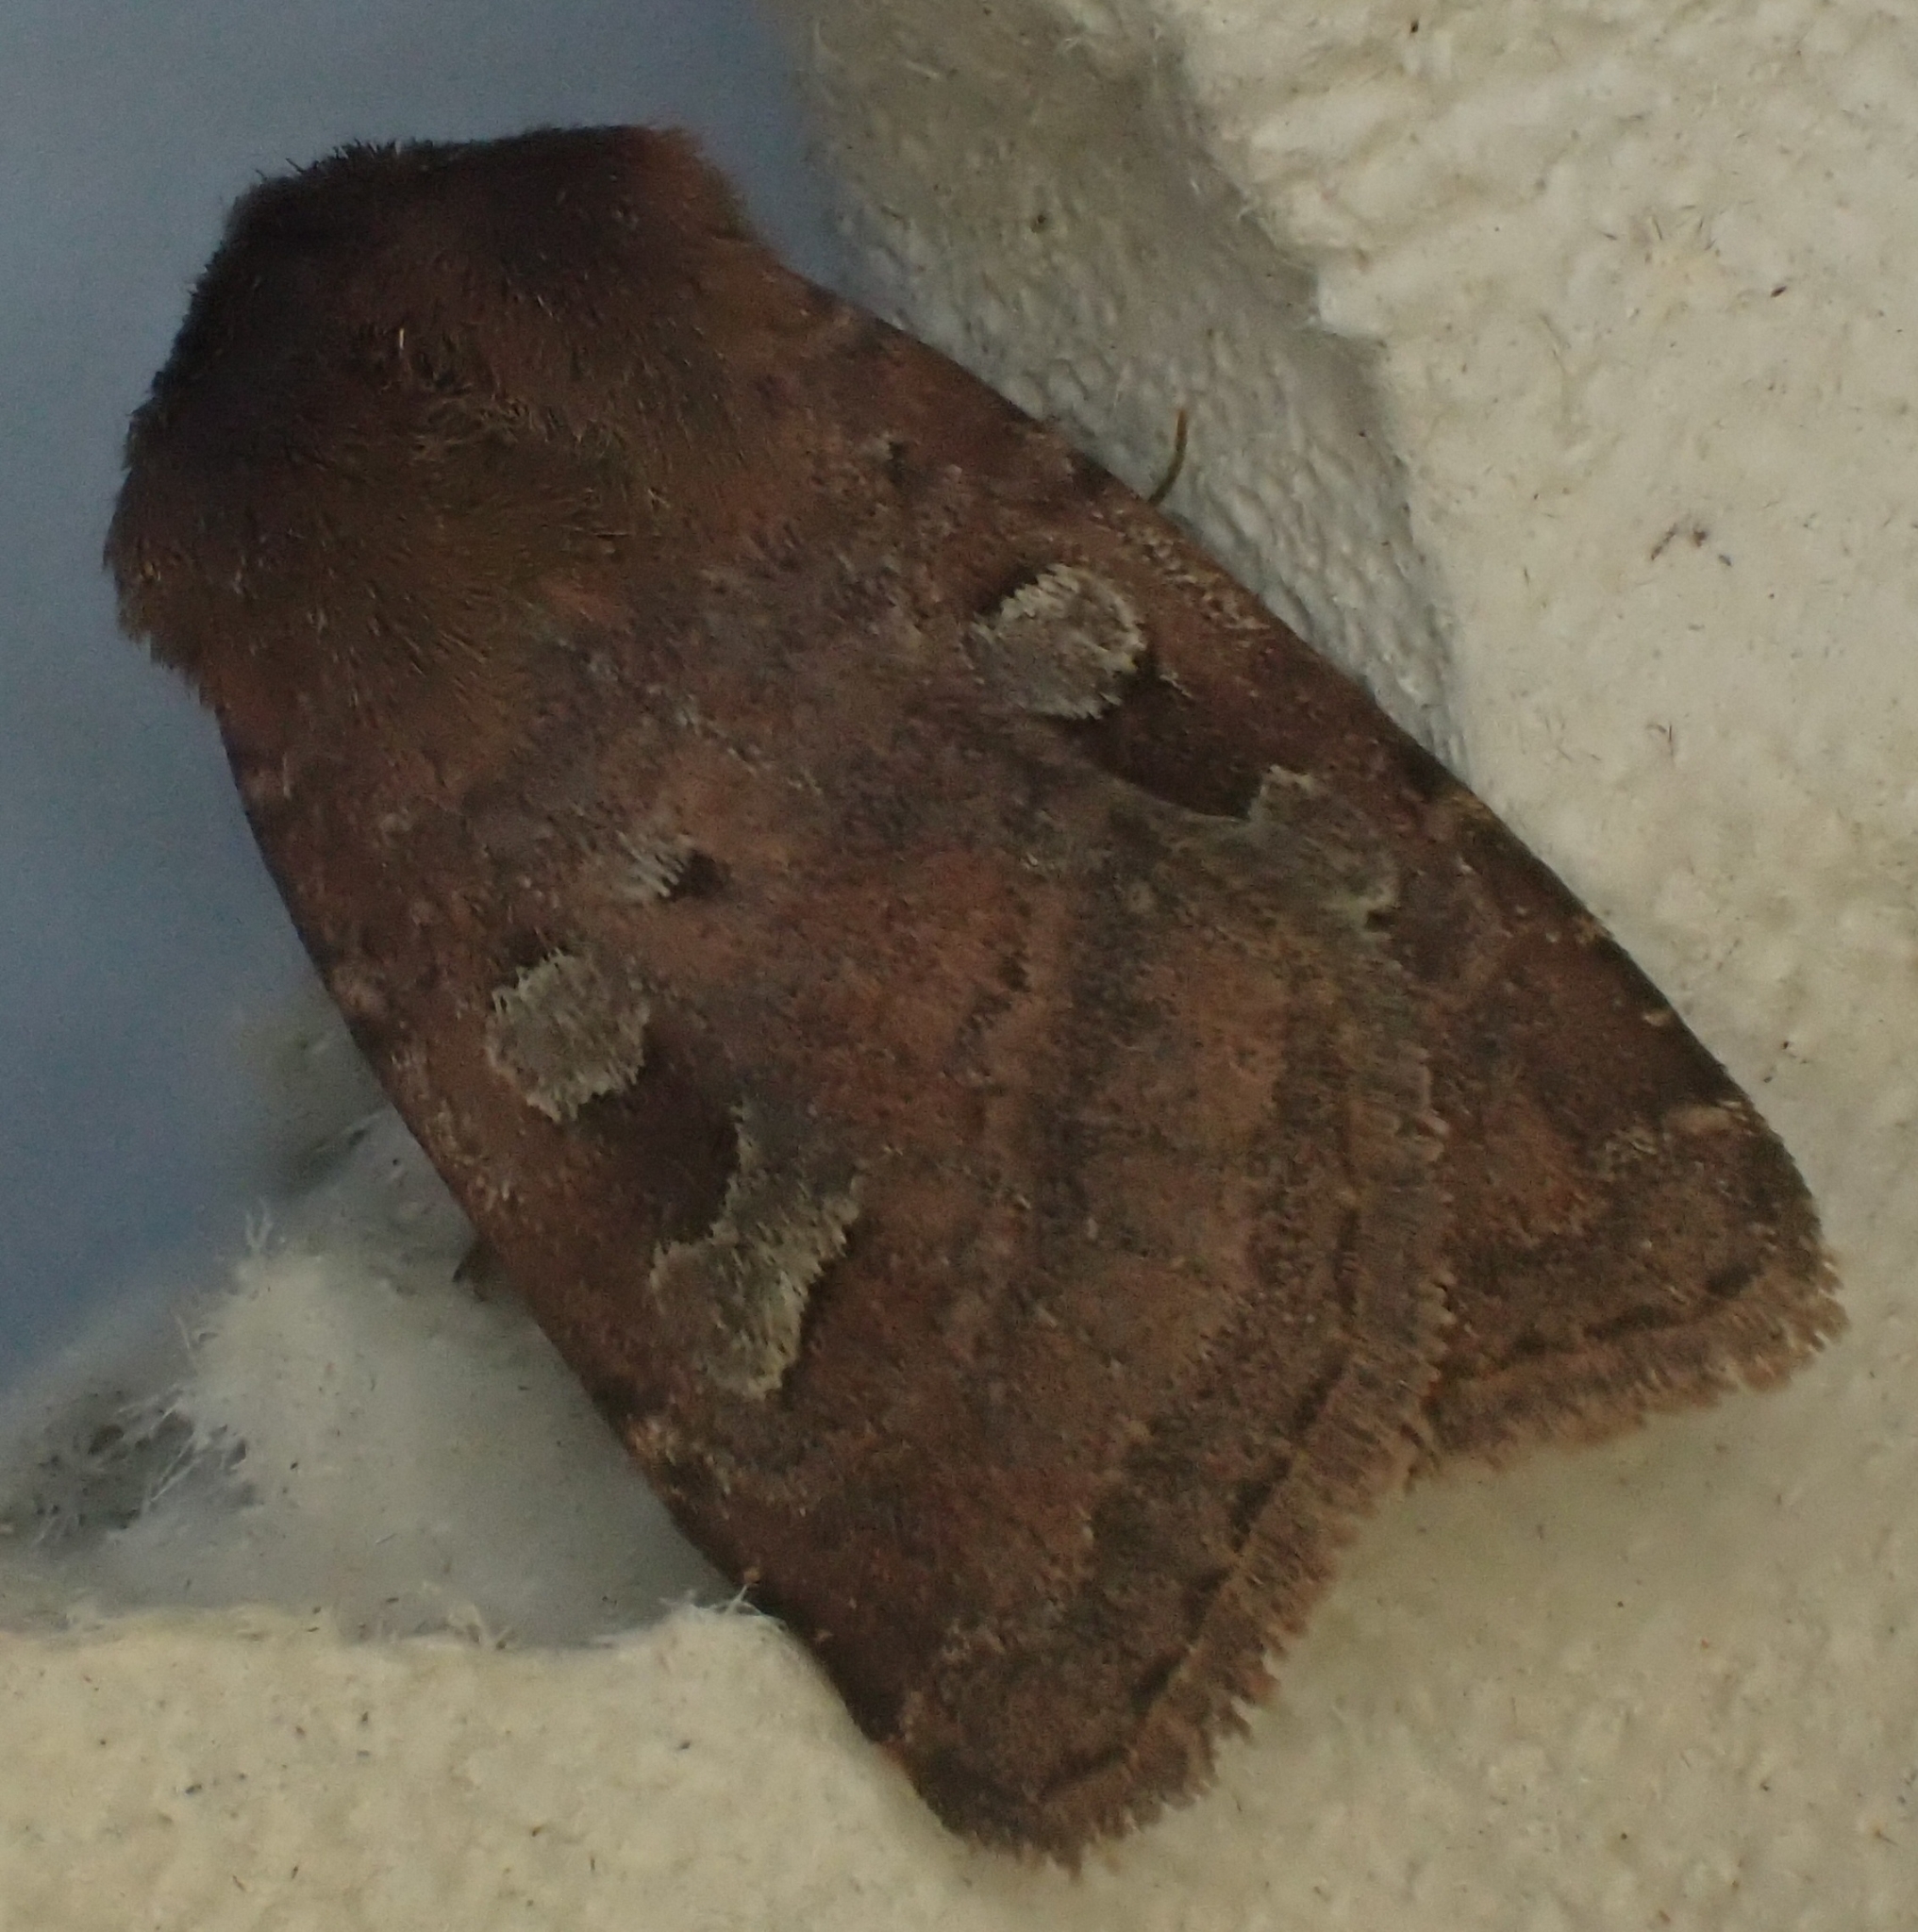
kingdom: Animalia
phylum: Arthropoda
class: Insecta
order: Lepidoptera
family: Noctuidae
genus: Diarsia
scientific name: Diarsia rubi
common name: Small square-spot
